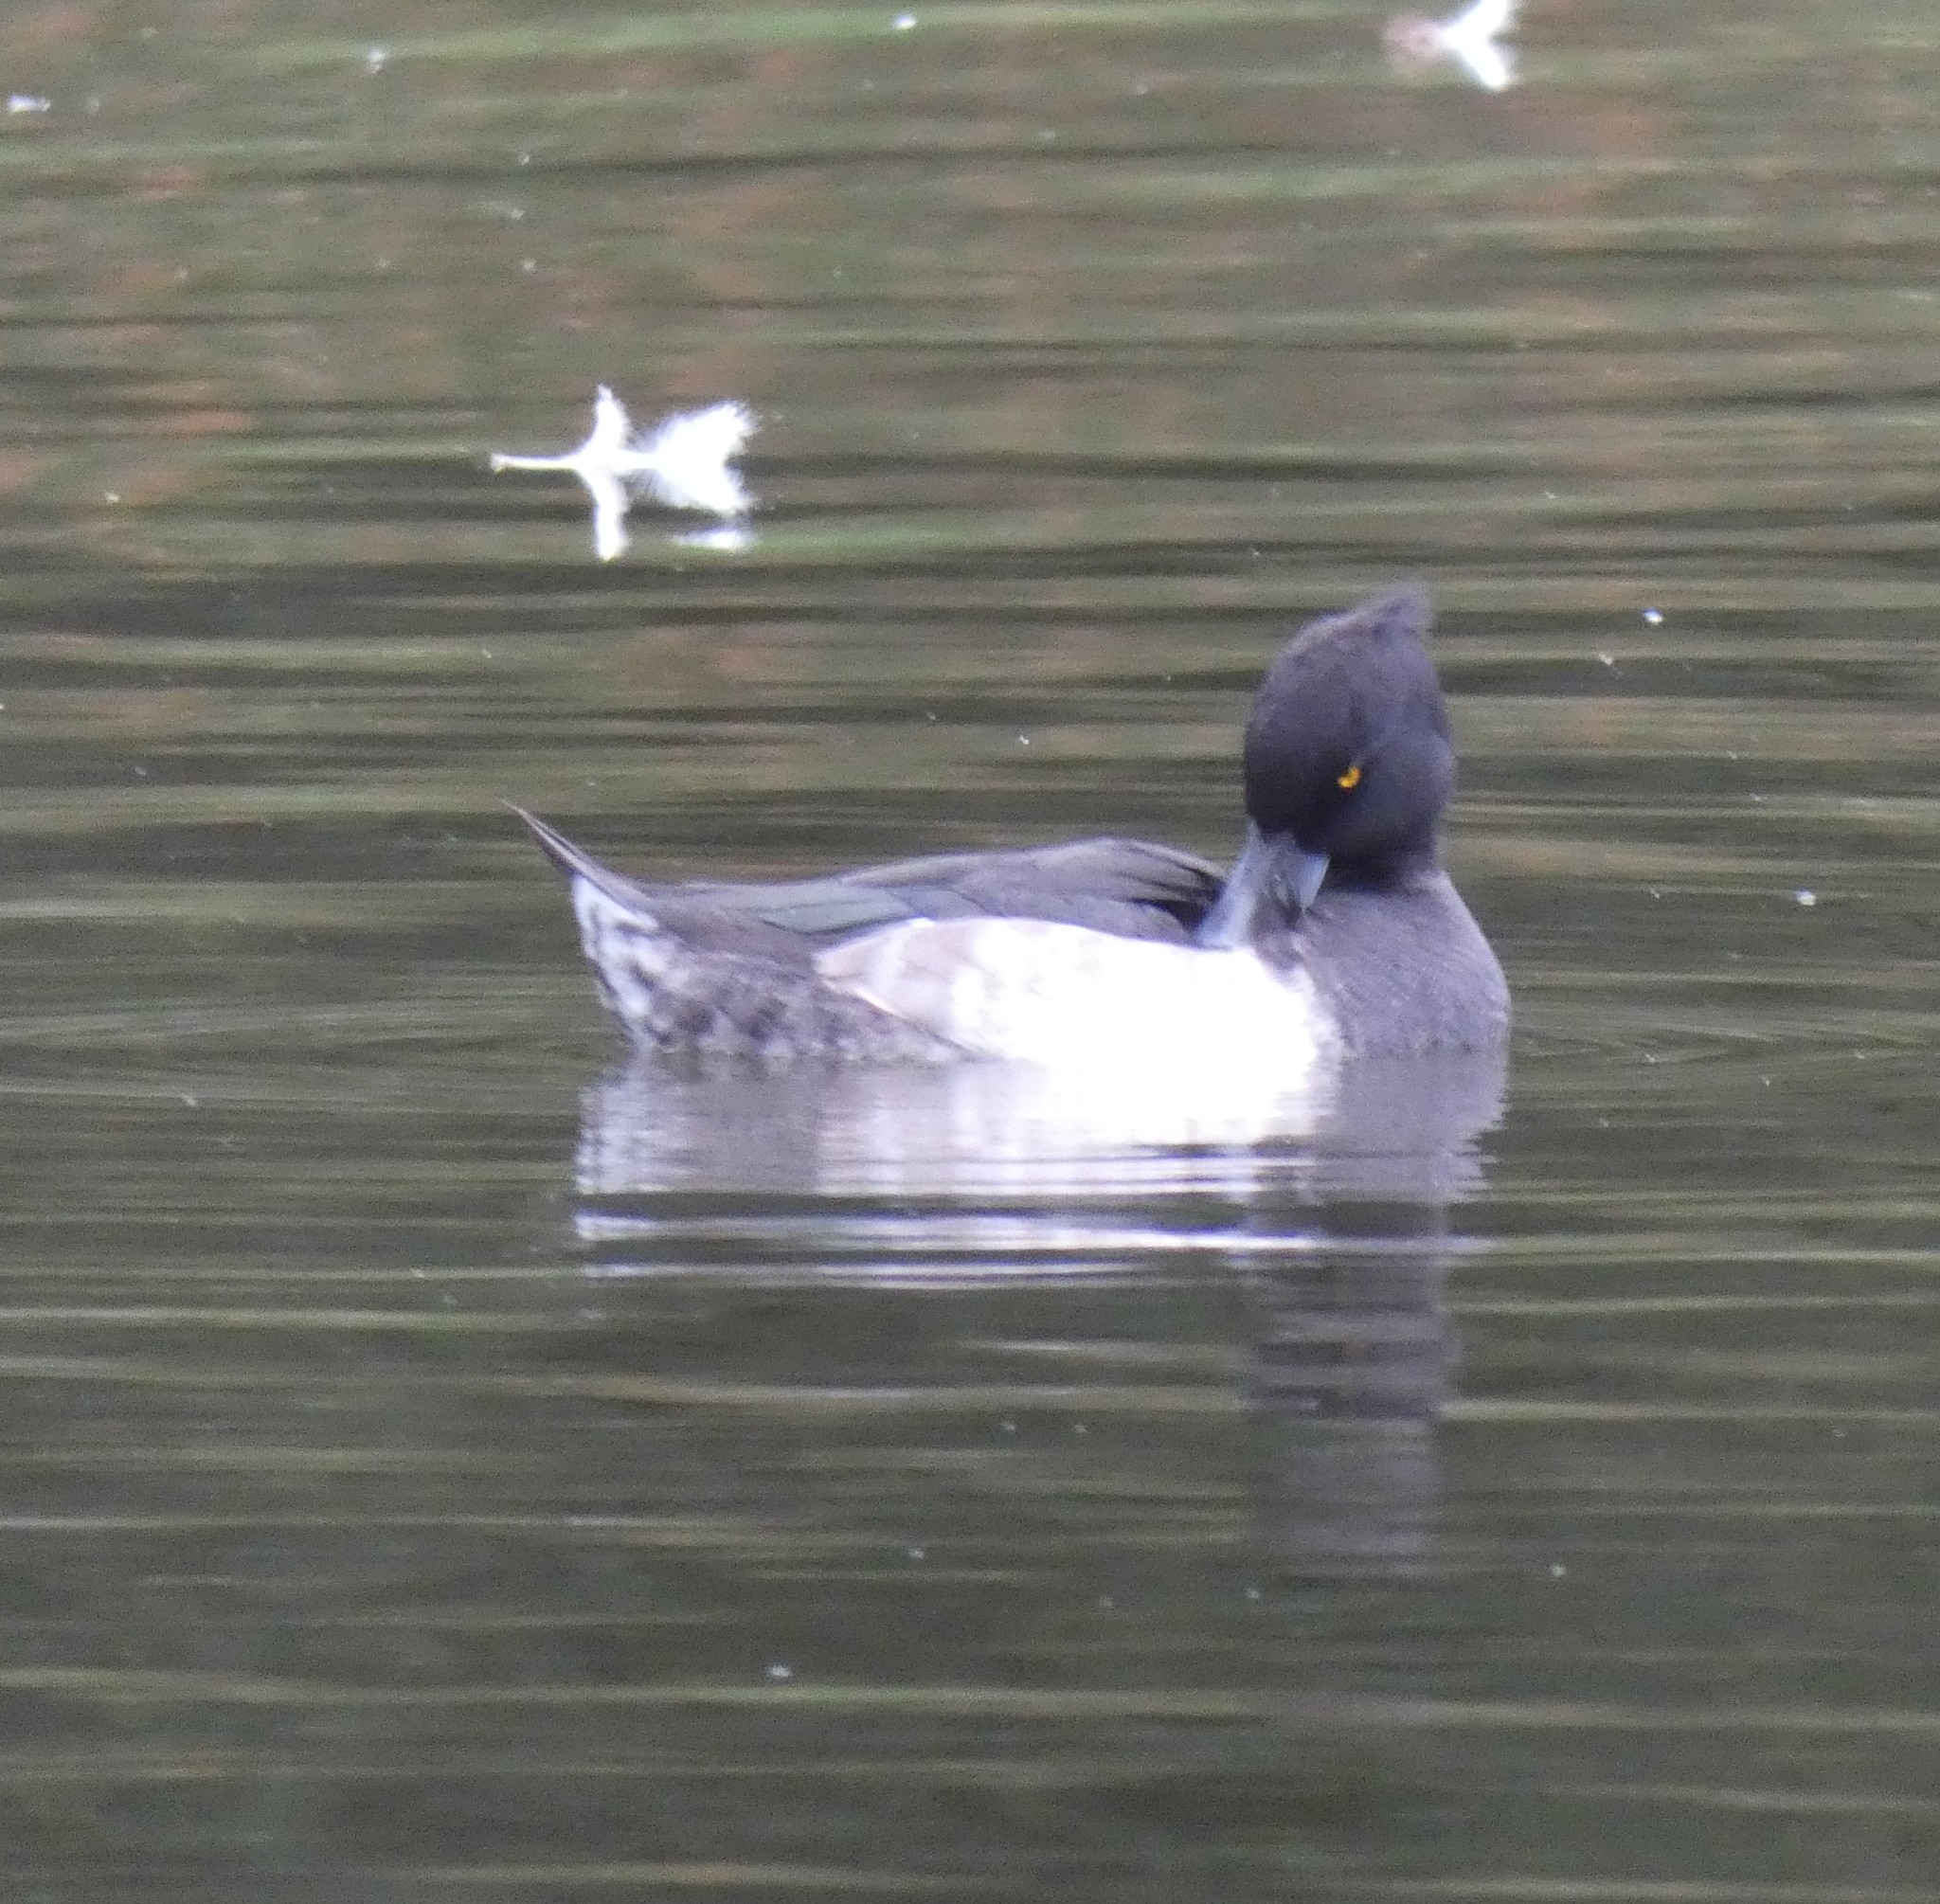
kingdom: Animalia
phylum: Chordata
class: Aves
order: Anseriformes
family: Anatidae
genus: Aythya
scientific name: Aythya fuligula
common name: Tufted duck
